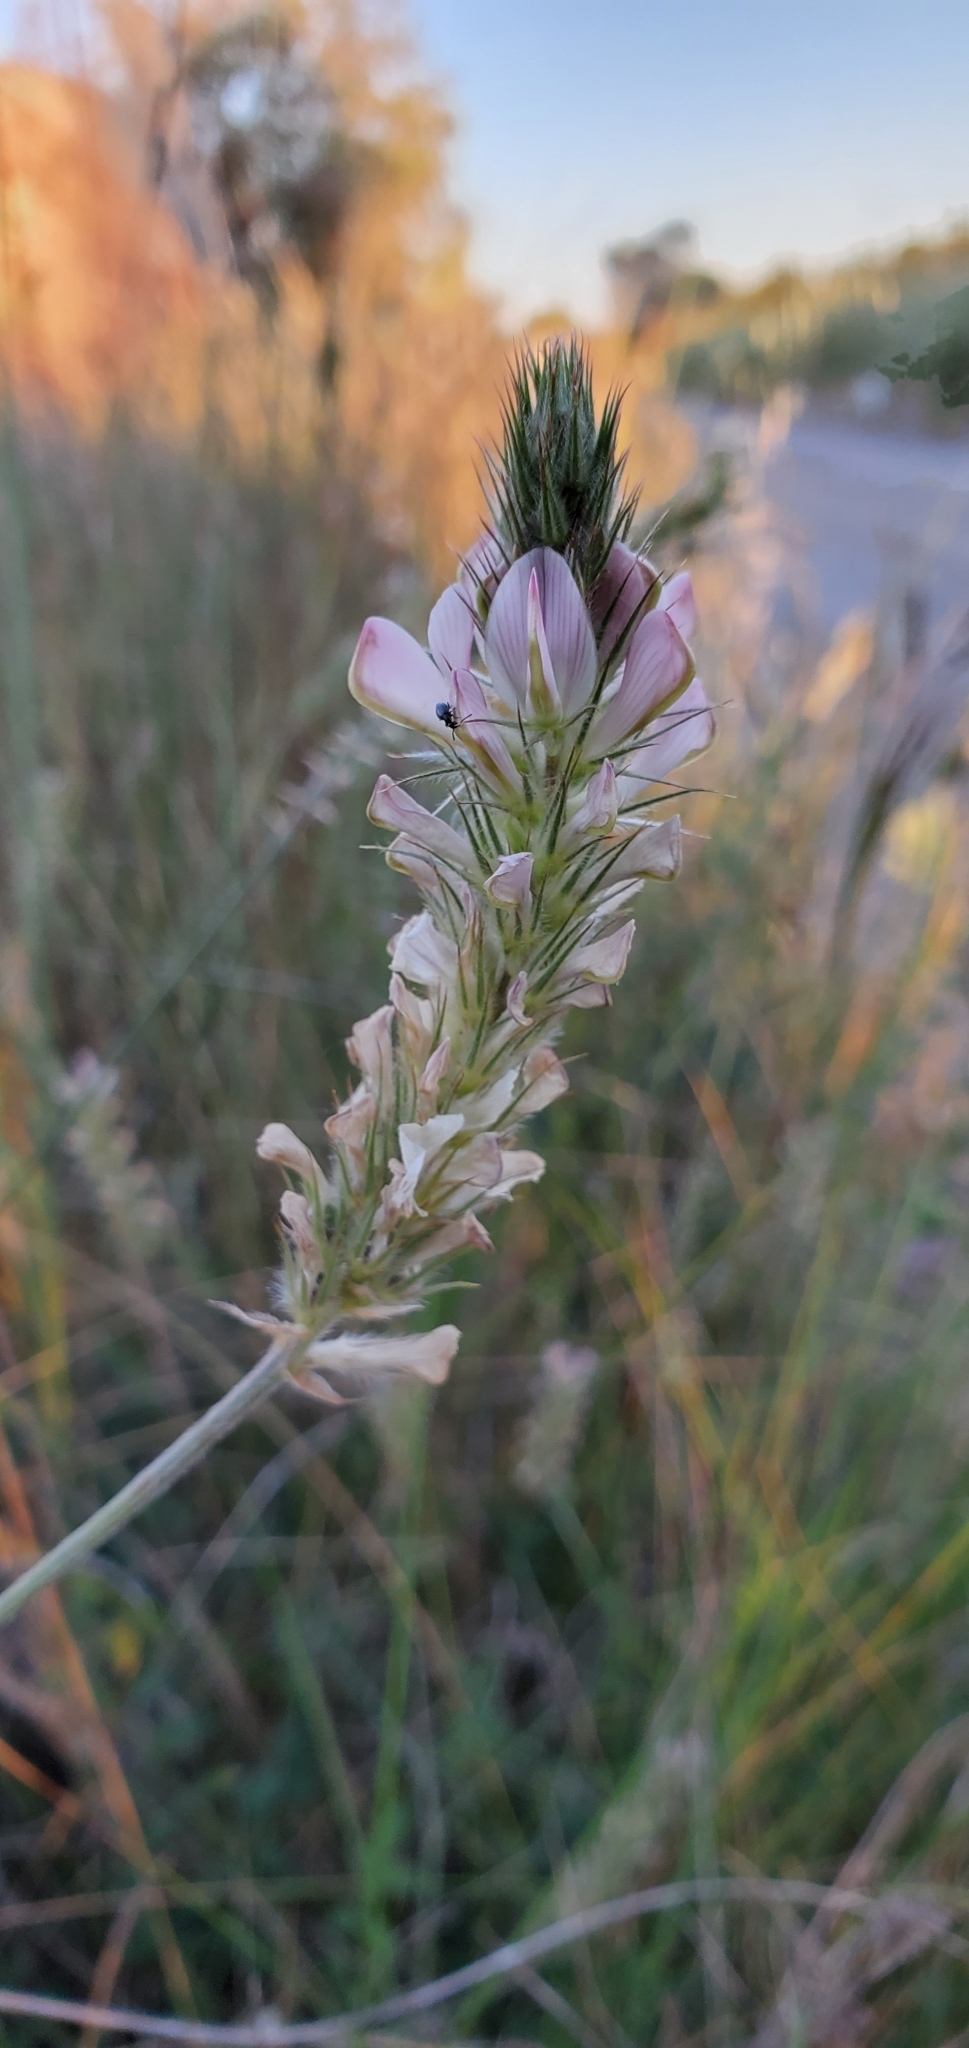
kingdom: Plantae
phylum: Tracheophyta
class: Magnoliopsida
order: Fabales
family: Fabaceae
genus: Onobrychis
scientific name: Onobrychis alba
